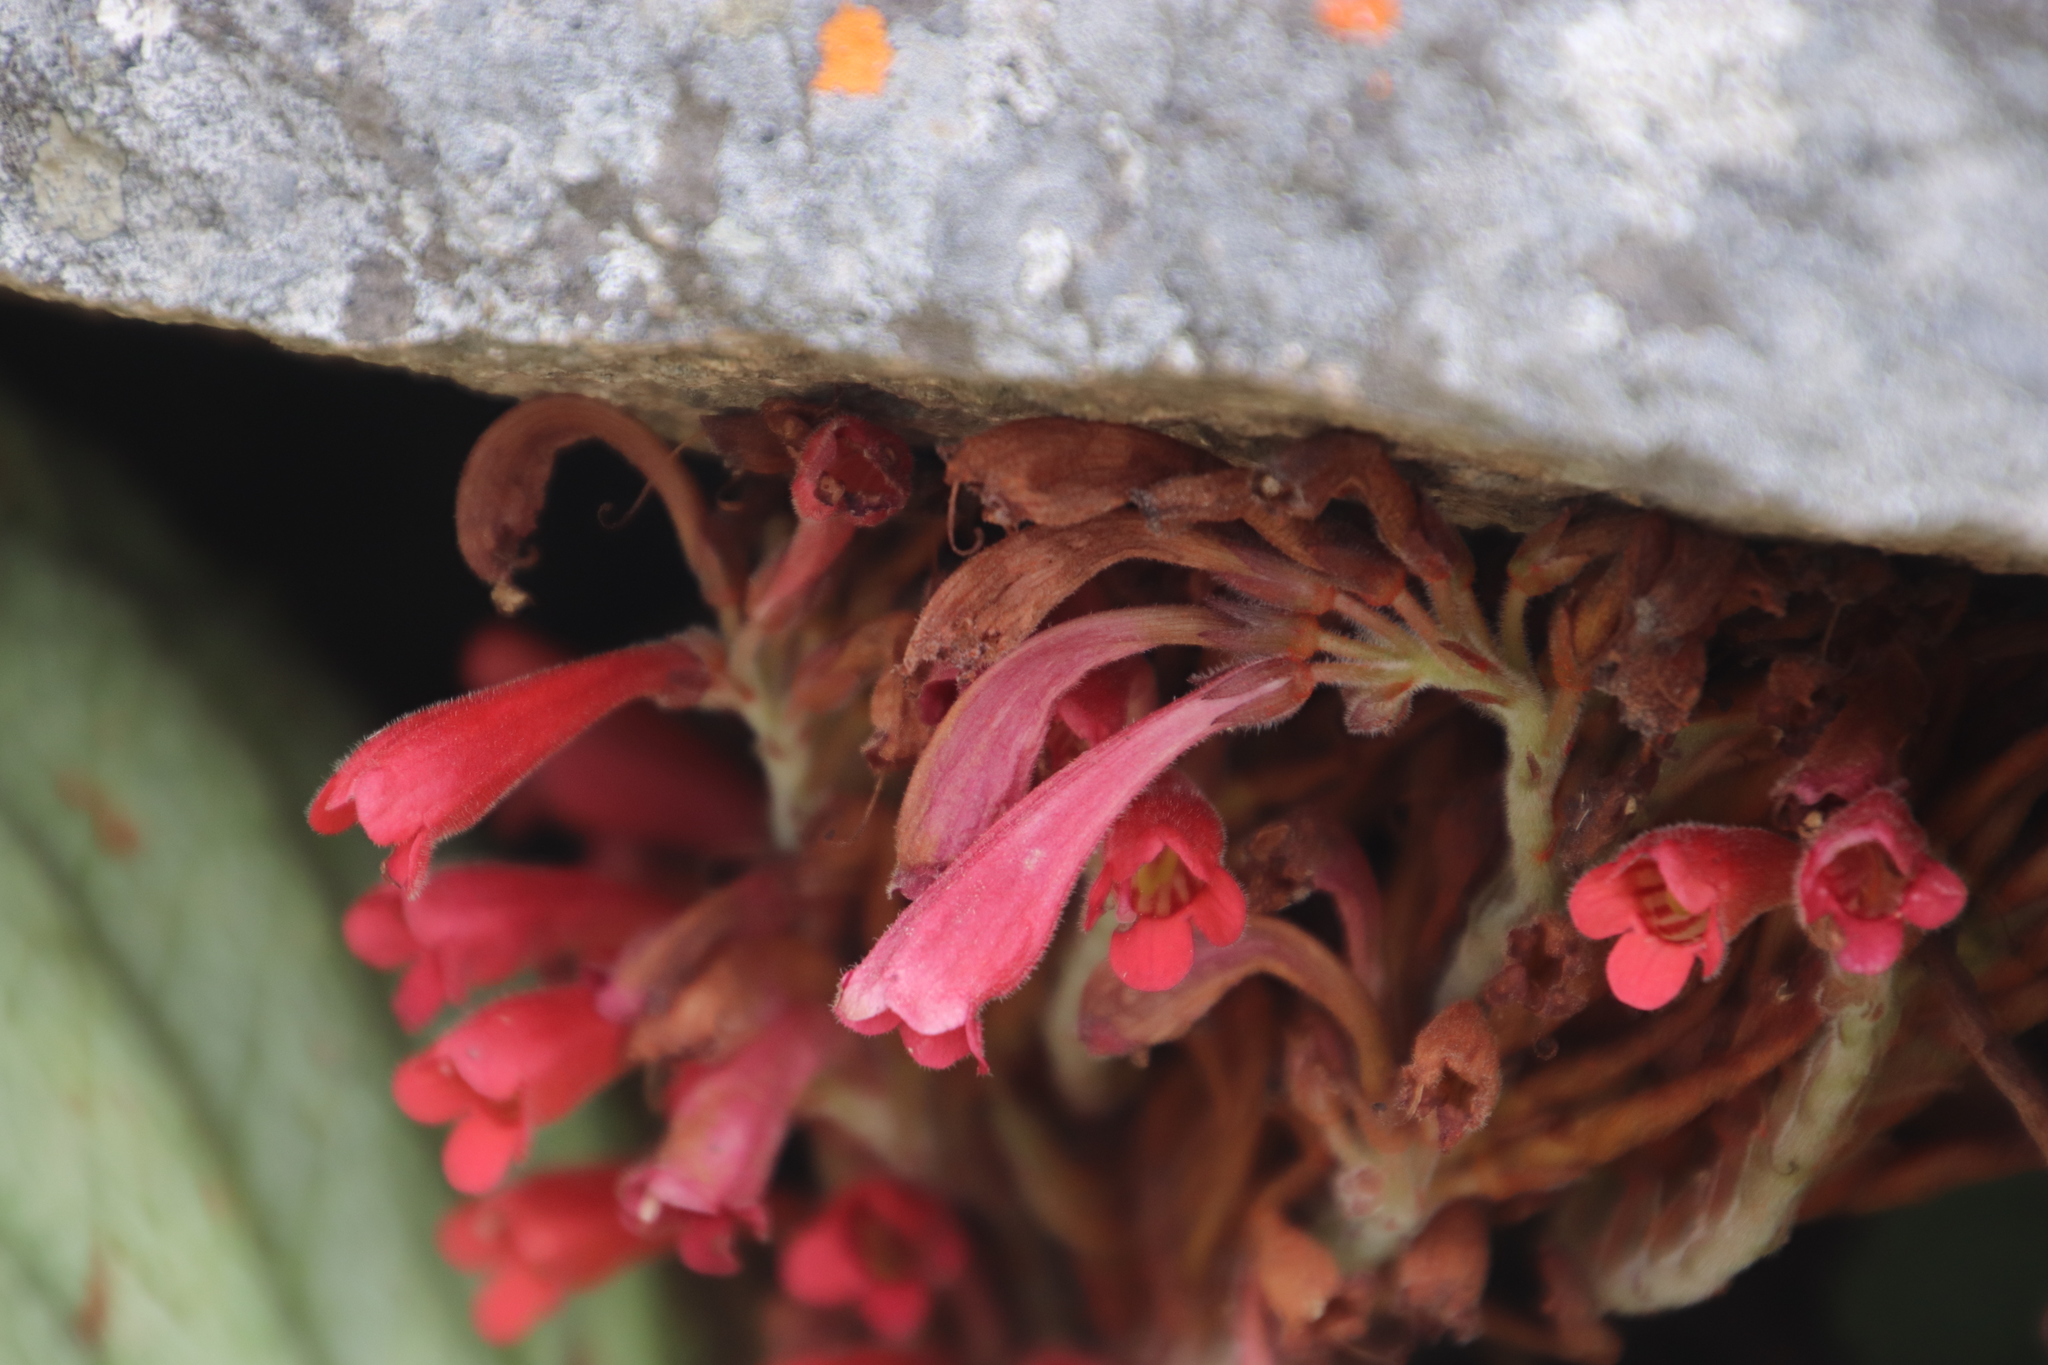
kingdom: Plantae
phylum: Tracheophyta
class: Magnoliopsida
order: Lamiales
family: Gesneriaceae
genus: Streptocarpus
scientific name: Streptocarpus dunnii
